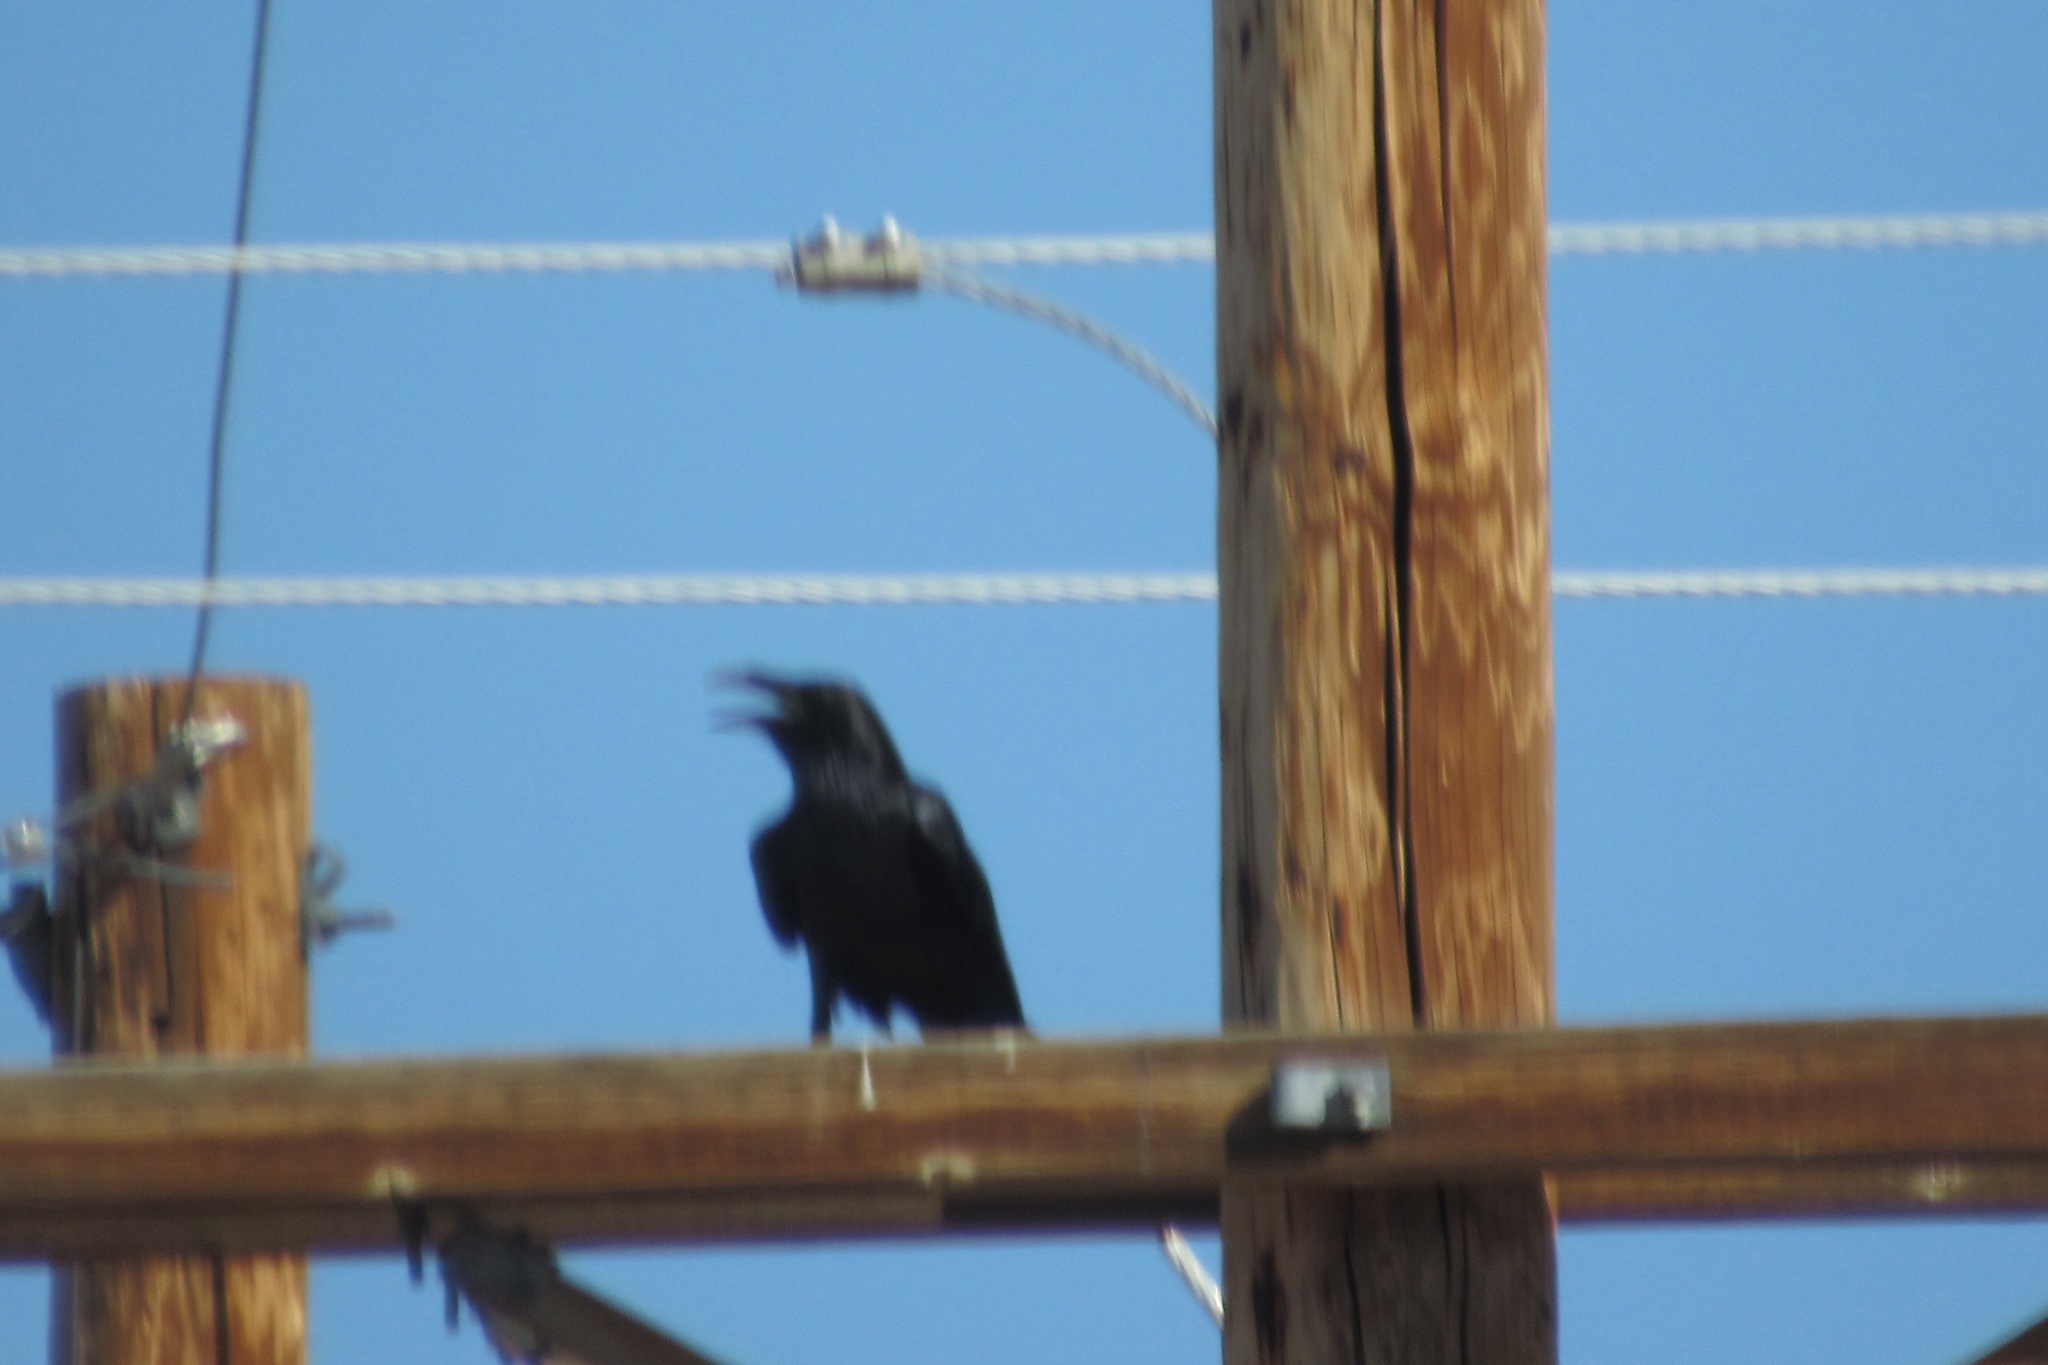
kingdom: Animalia
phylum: Chordata
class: Aves
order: Passeriformes
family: Corvidae
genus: Corvus
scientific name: Corvus corax
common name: Common raven
